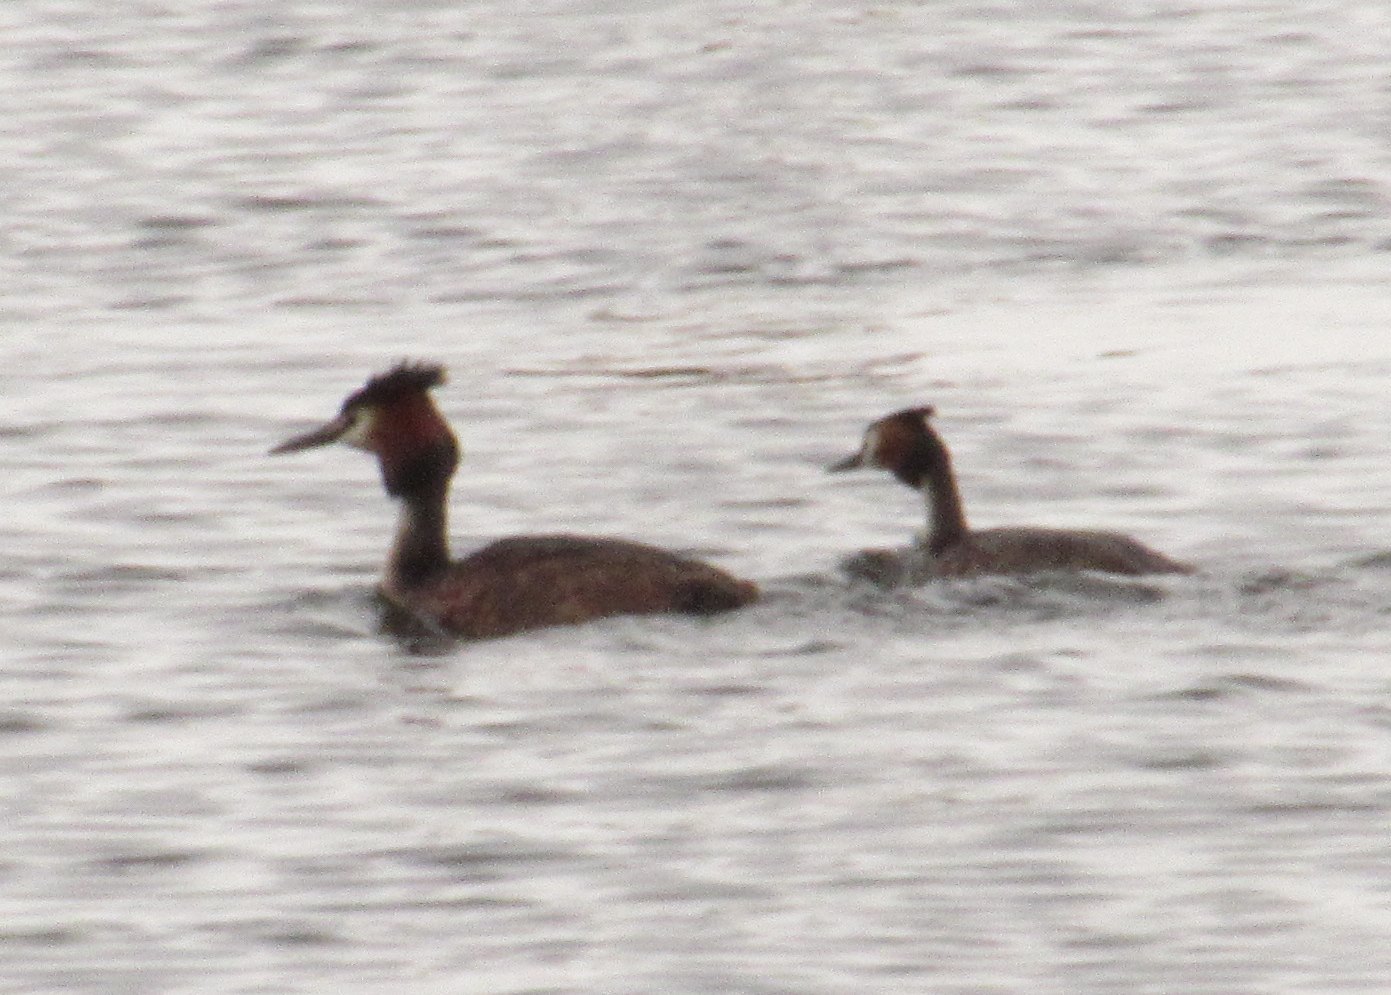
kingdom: Animalia
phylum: Chordata
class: Aves
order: Podicipediformes
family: Podicipedidae
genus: Podiceps
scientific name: Podiceps cristatus
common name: Great crested grebe
